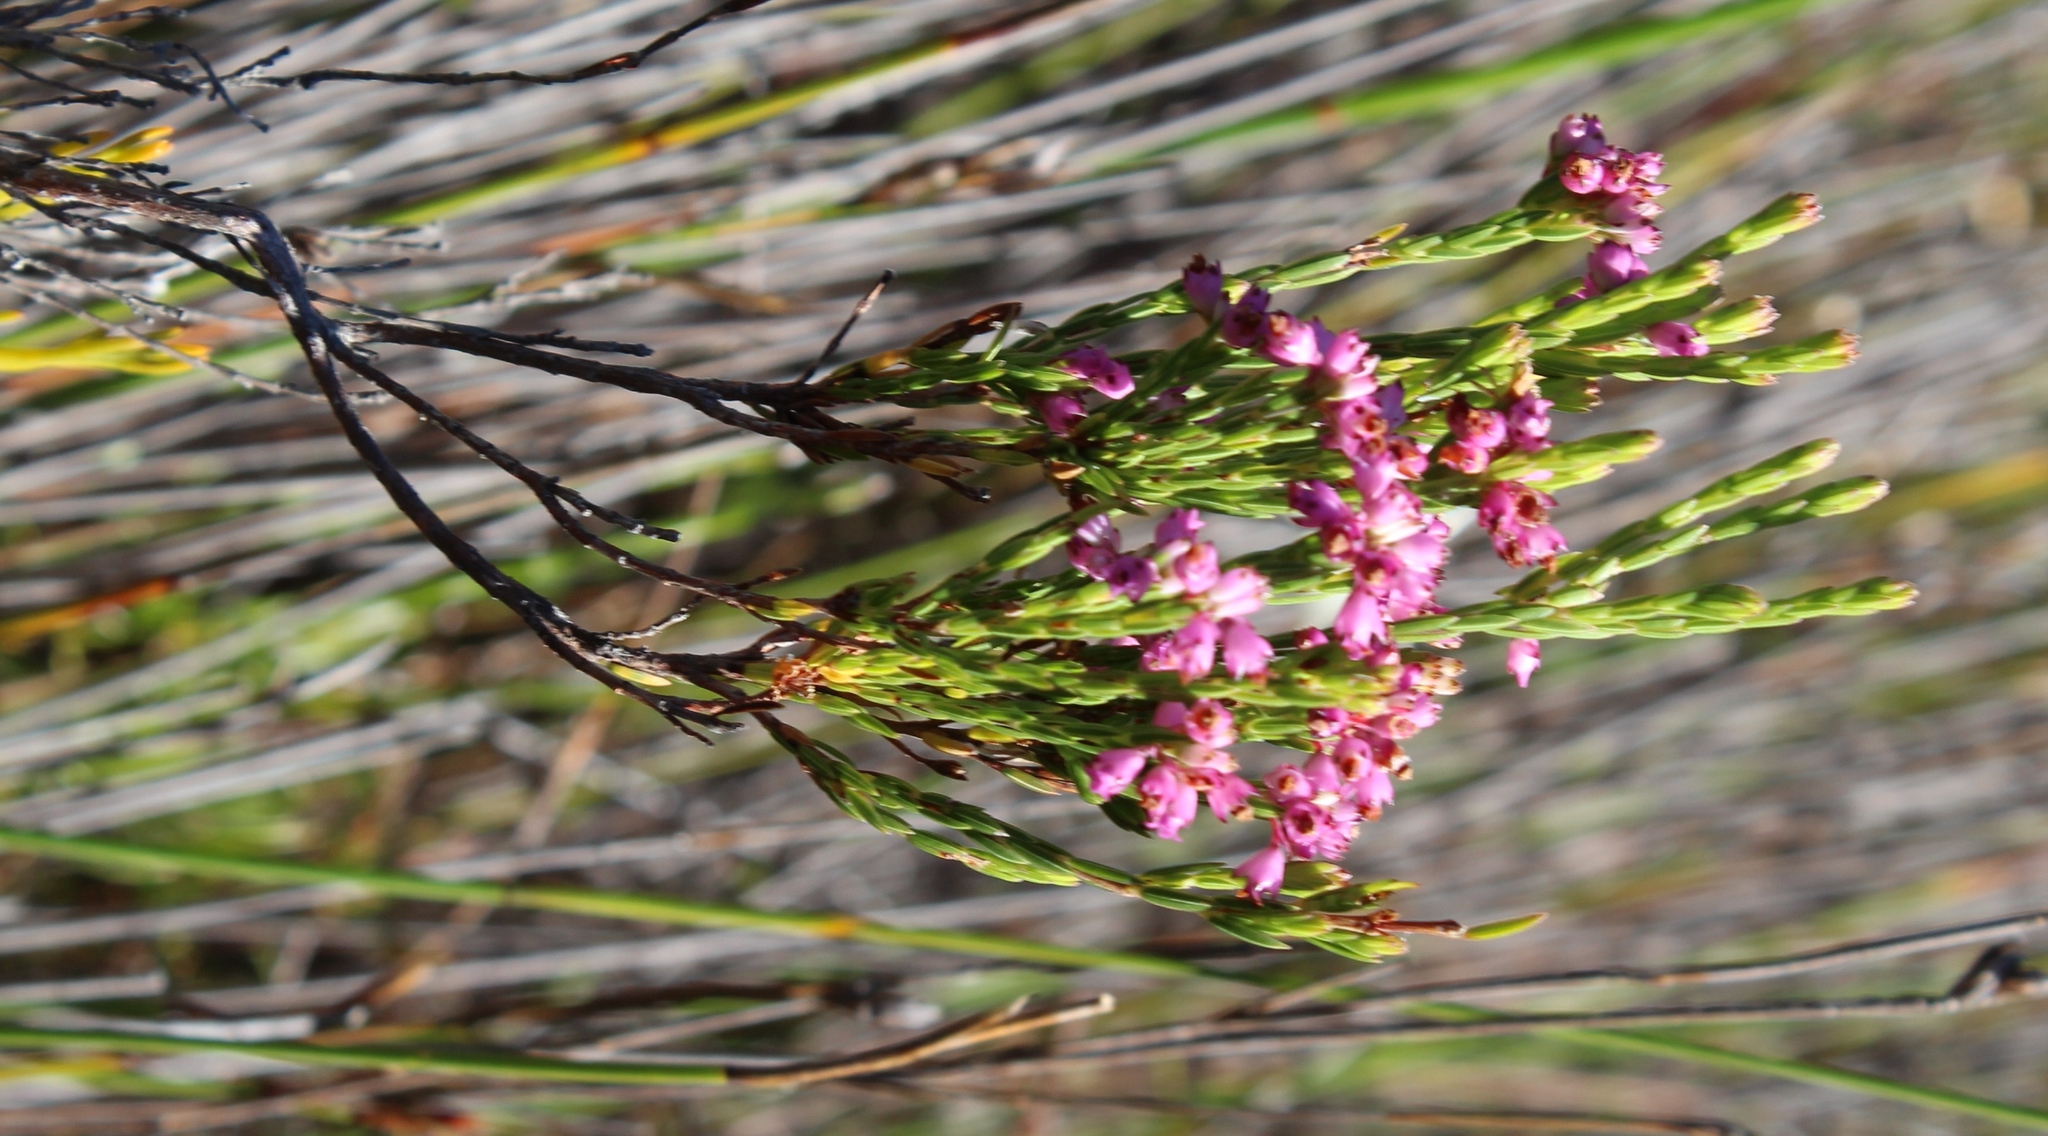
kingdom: Plantae
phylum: Tracheophyta
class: Magnoliopsida
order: Ericales
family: Ericaceae
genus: Erica
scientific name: Erica corifolia
